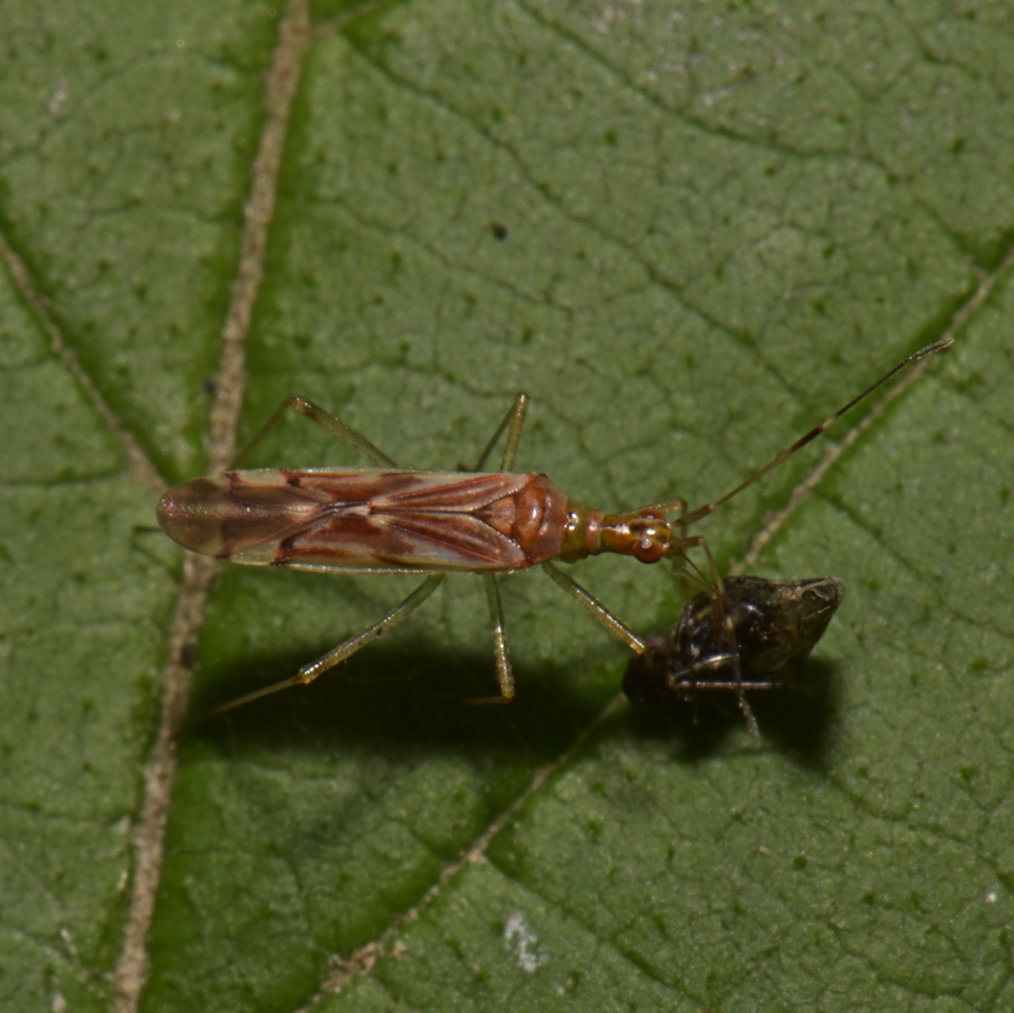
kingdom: Animalia
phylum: Arthropoda
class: Insecta
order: Hemiptera
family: Miridae
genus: Dicyphus
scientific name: Dicyphus famelicus
